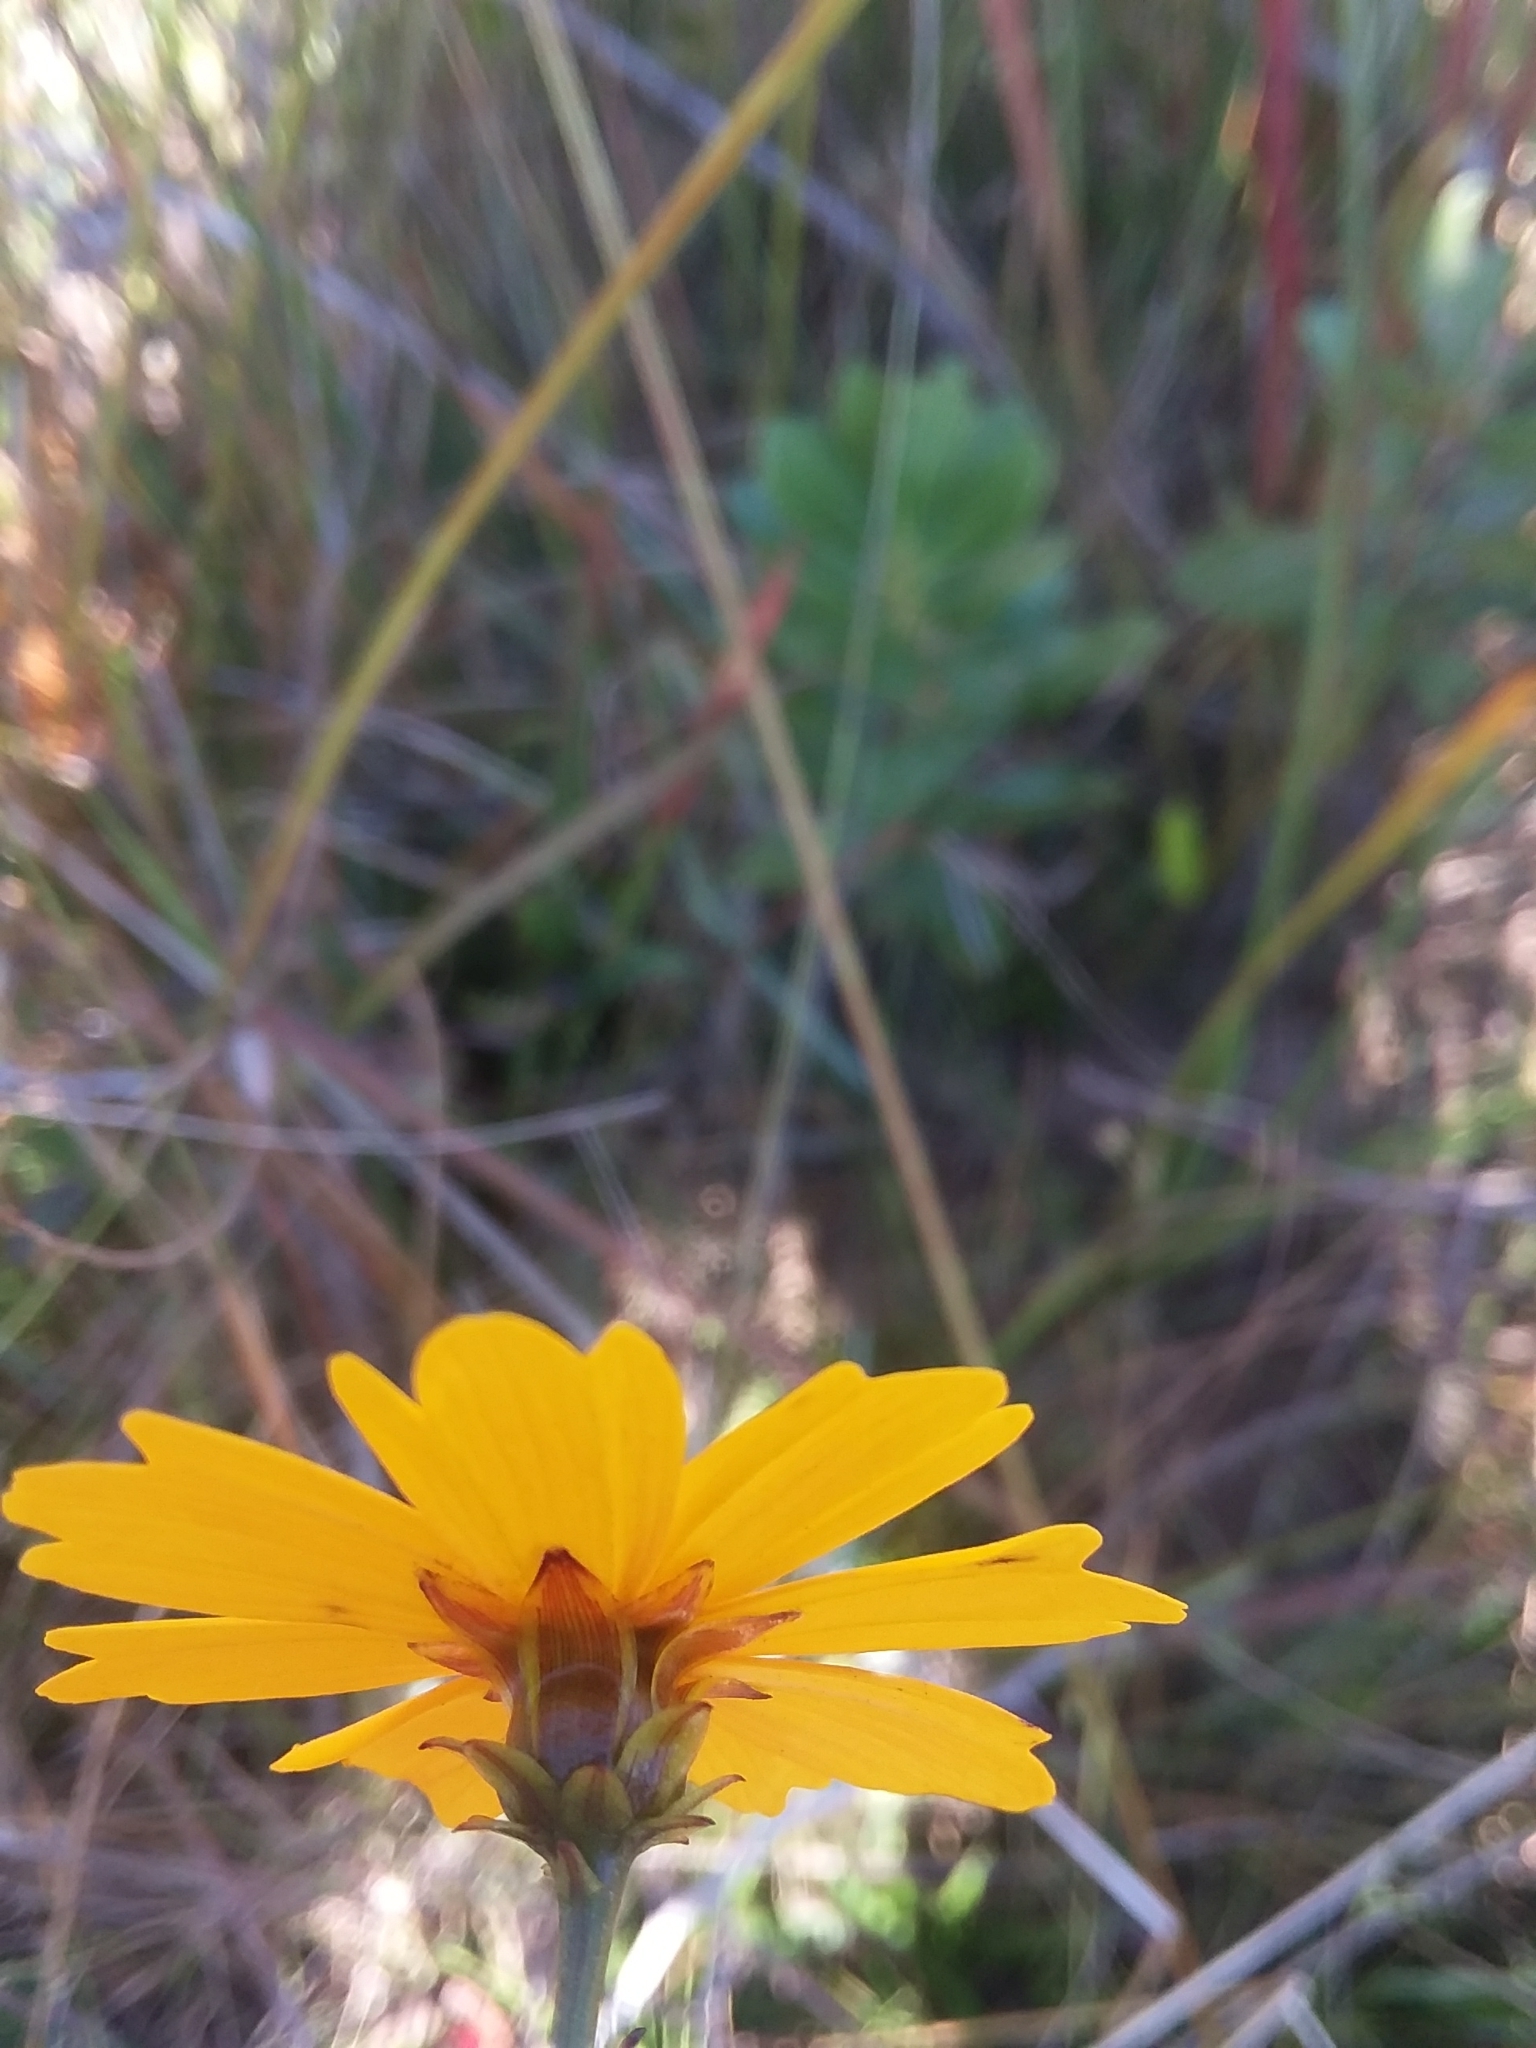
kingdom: Plantae
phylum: Tracheophyta
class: Magnoliopsida
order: Asterales
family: Asteraceae
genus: Coreopsis
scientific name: Coreopsis gladiata
